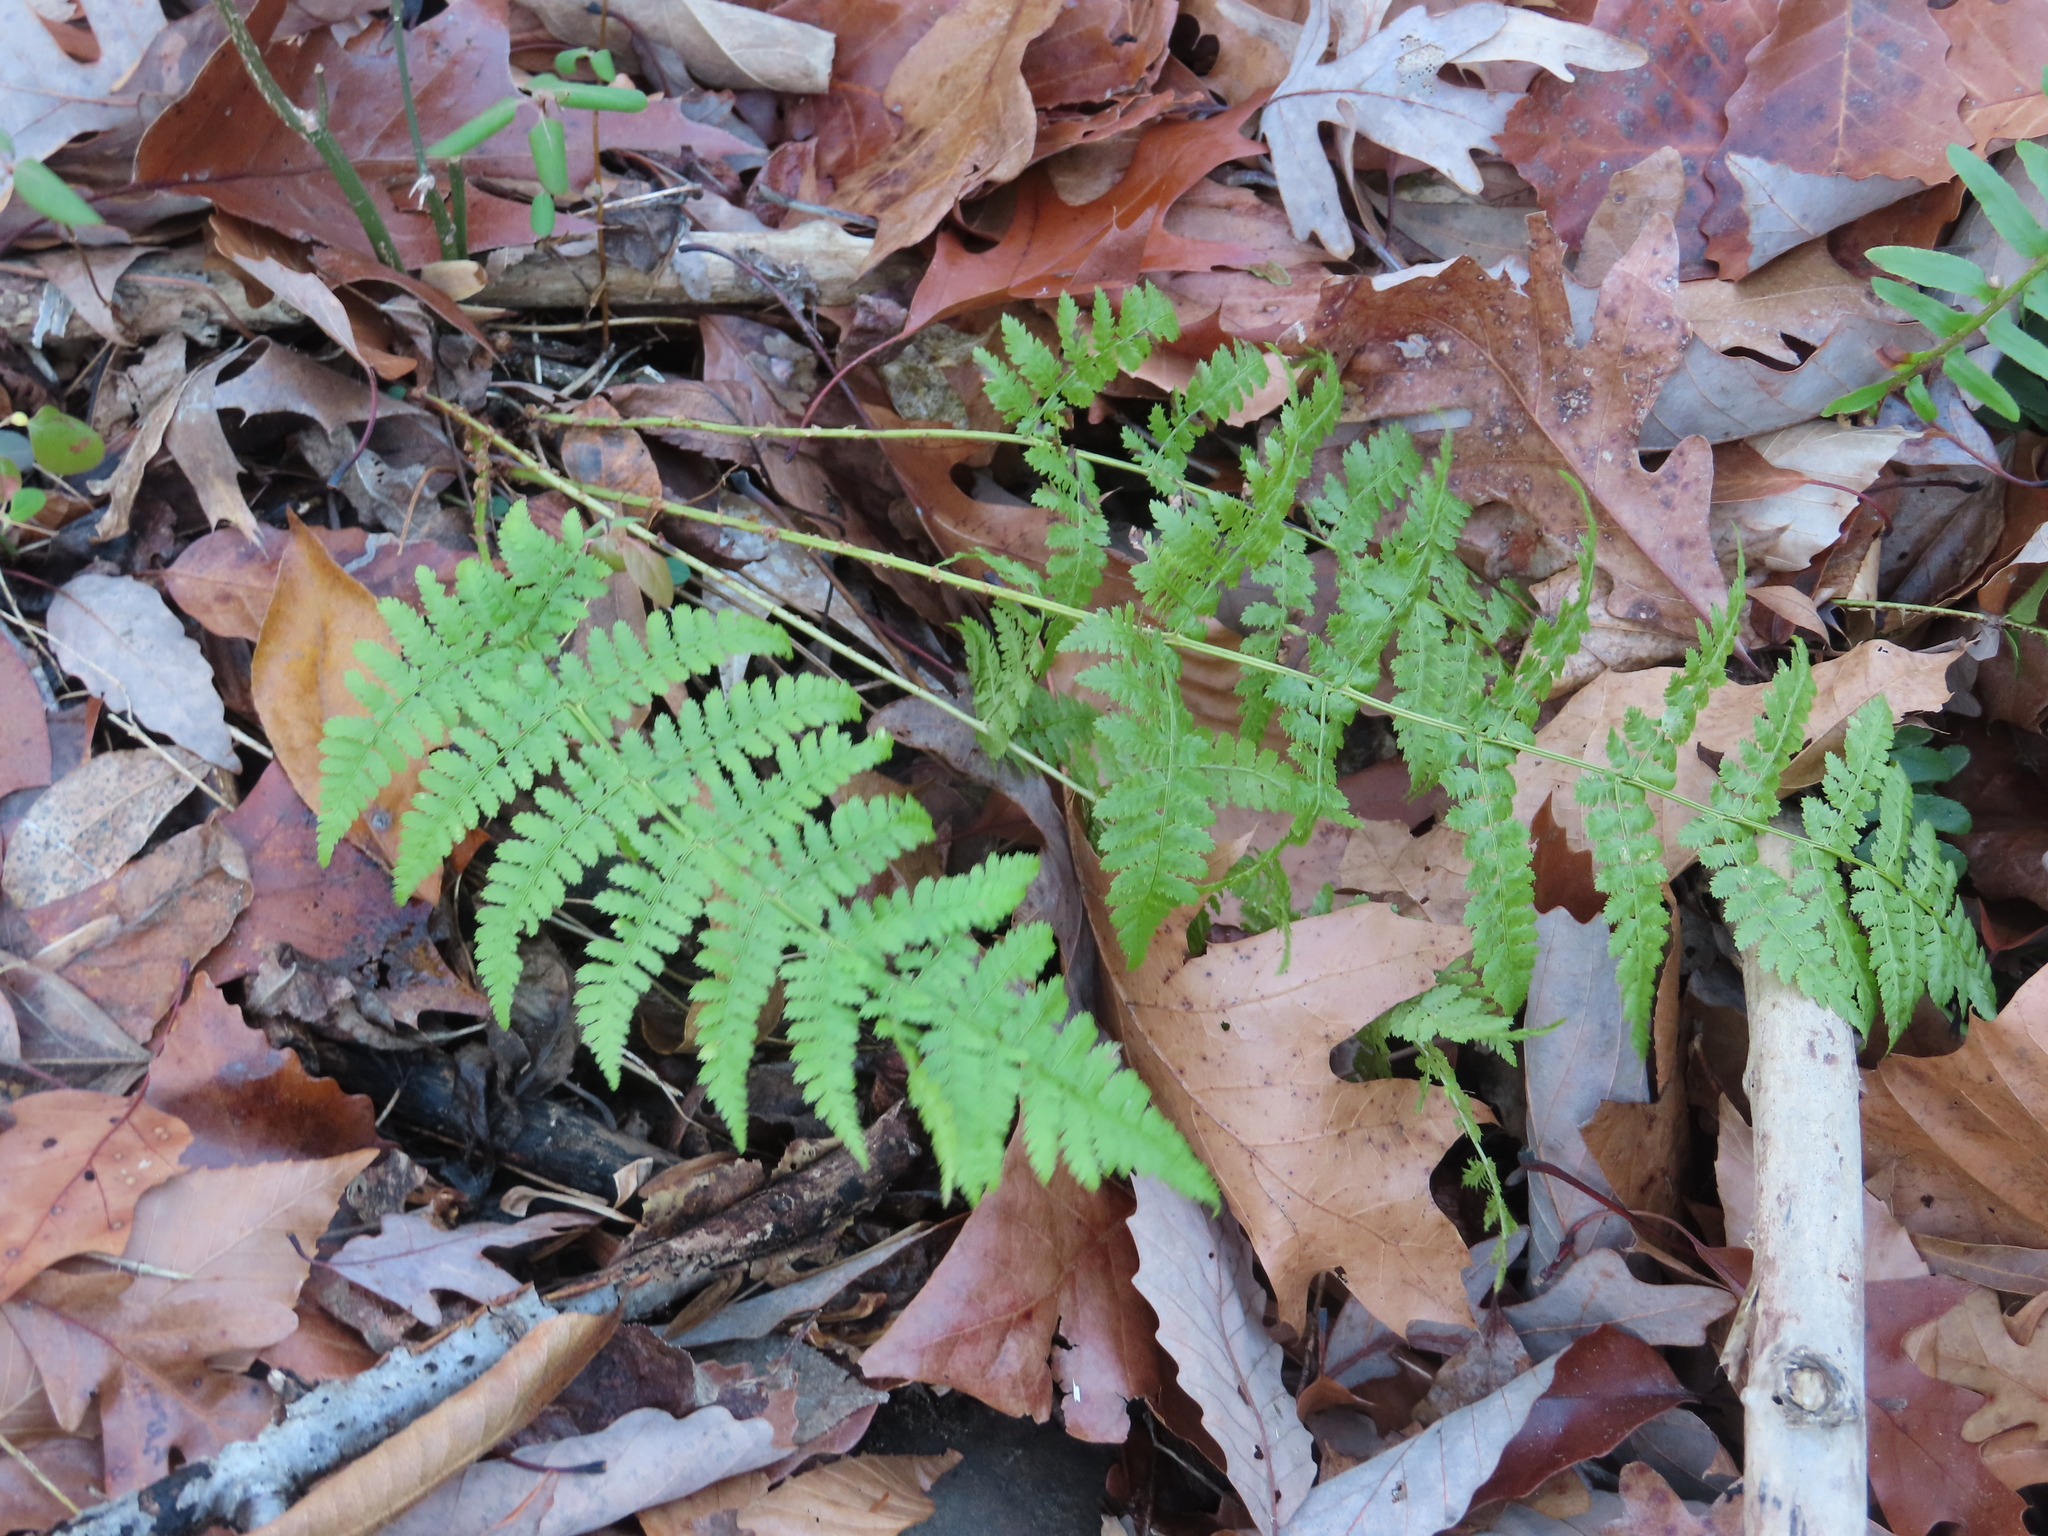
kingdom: Plantae
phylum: Tracheophyta
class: Polypodiopsida
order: Polypodiales
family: Dryopteridaceae
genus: Dryopteris
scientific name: Dryopteris intermedia
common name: Evergreen wood fern
